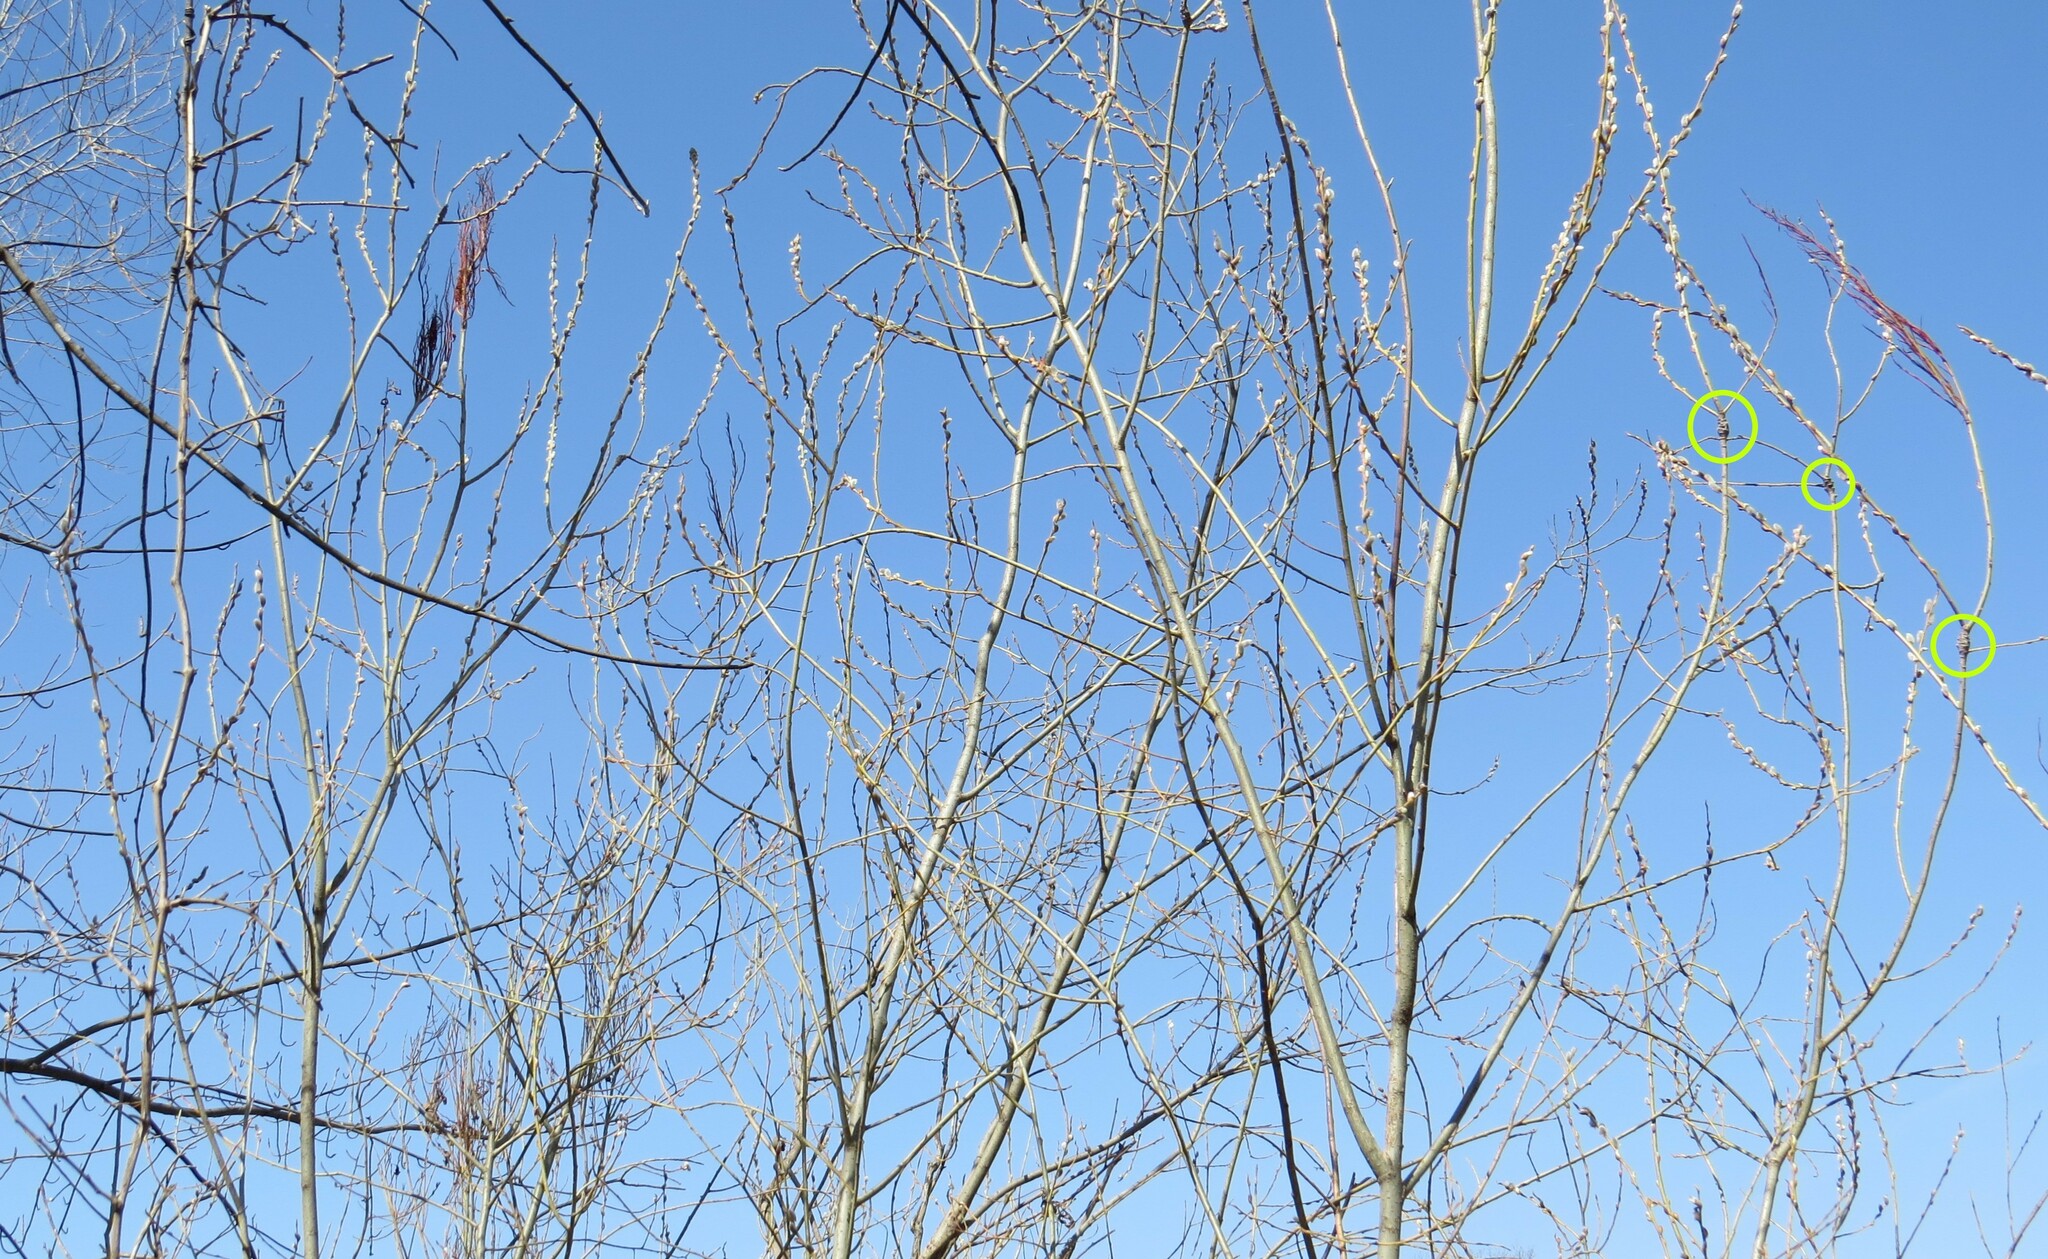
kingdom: Animalia
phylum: Arthropoda
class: Insecta
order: Diptera
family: Cecidomyiidae
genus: Rabdophaga
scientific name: Rabdophaga salicistriticoides
